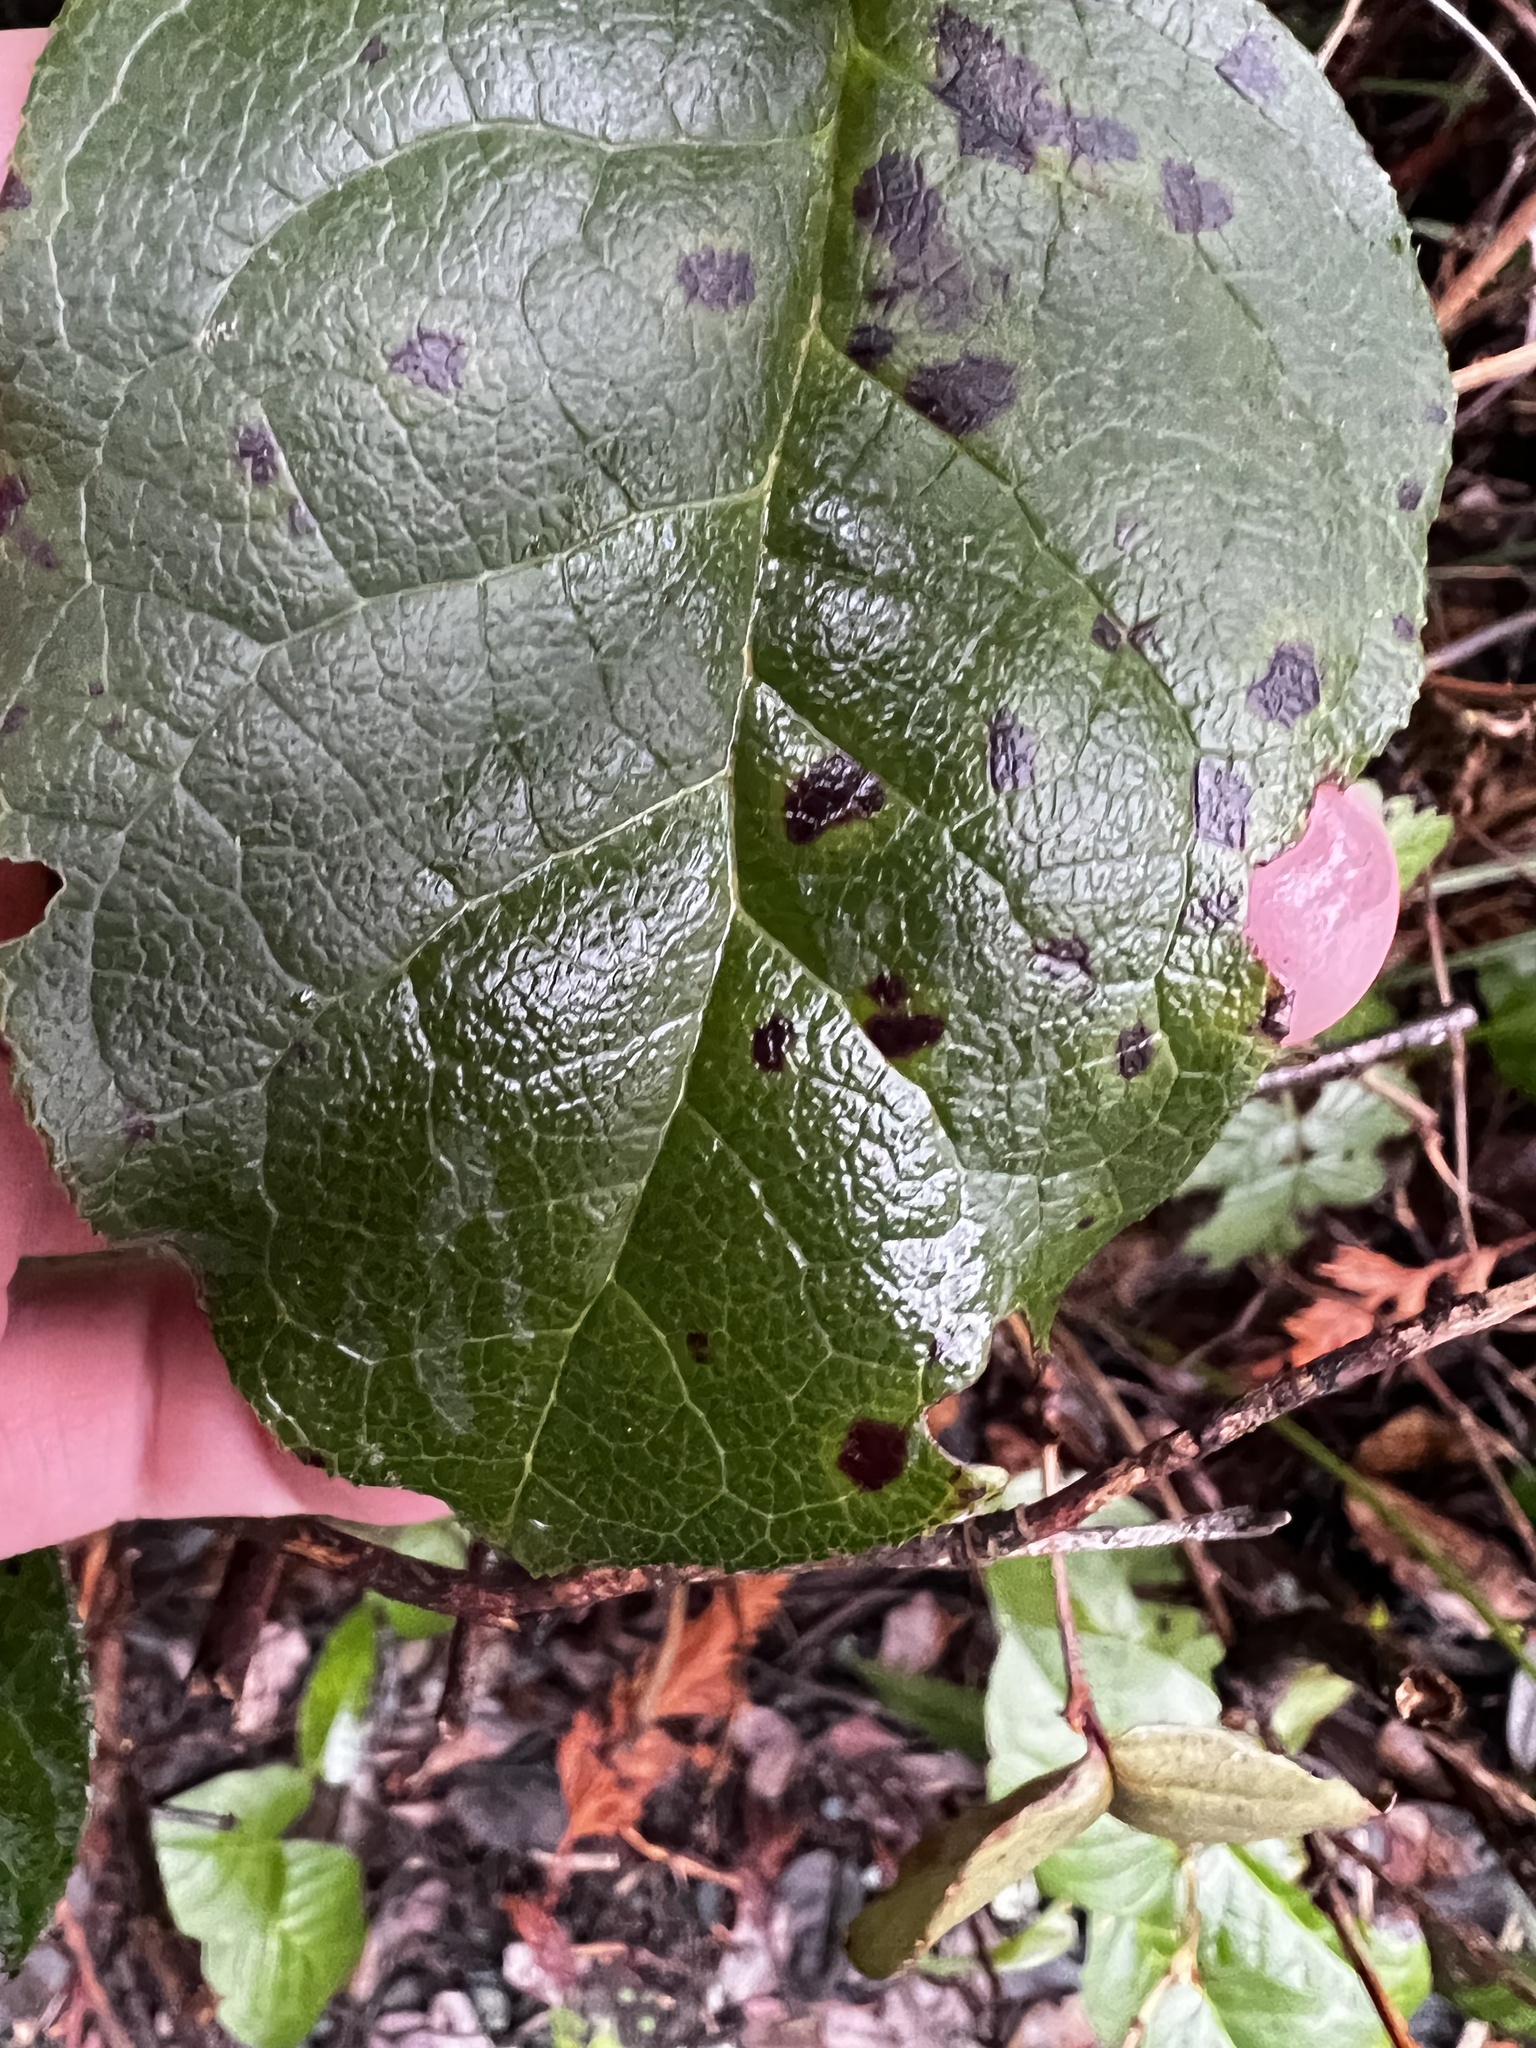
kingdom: Plantae
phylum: Tracheophyta
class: Magnoliopsida
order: Ericales
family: Ericaceae
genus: Gaultheria
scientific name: Gaultheria shallon
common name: Shallon
